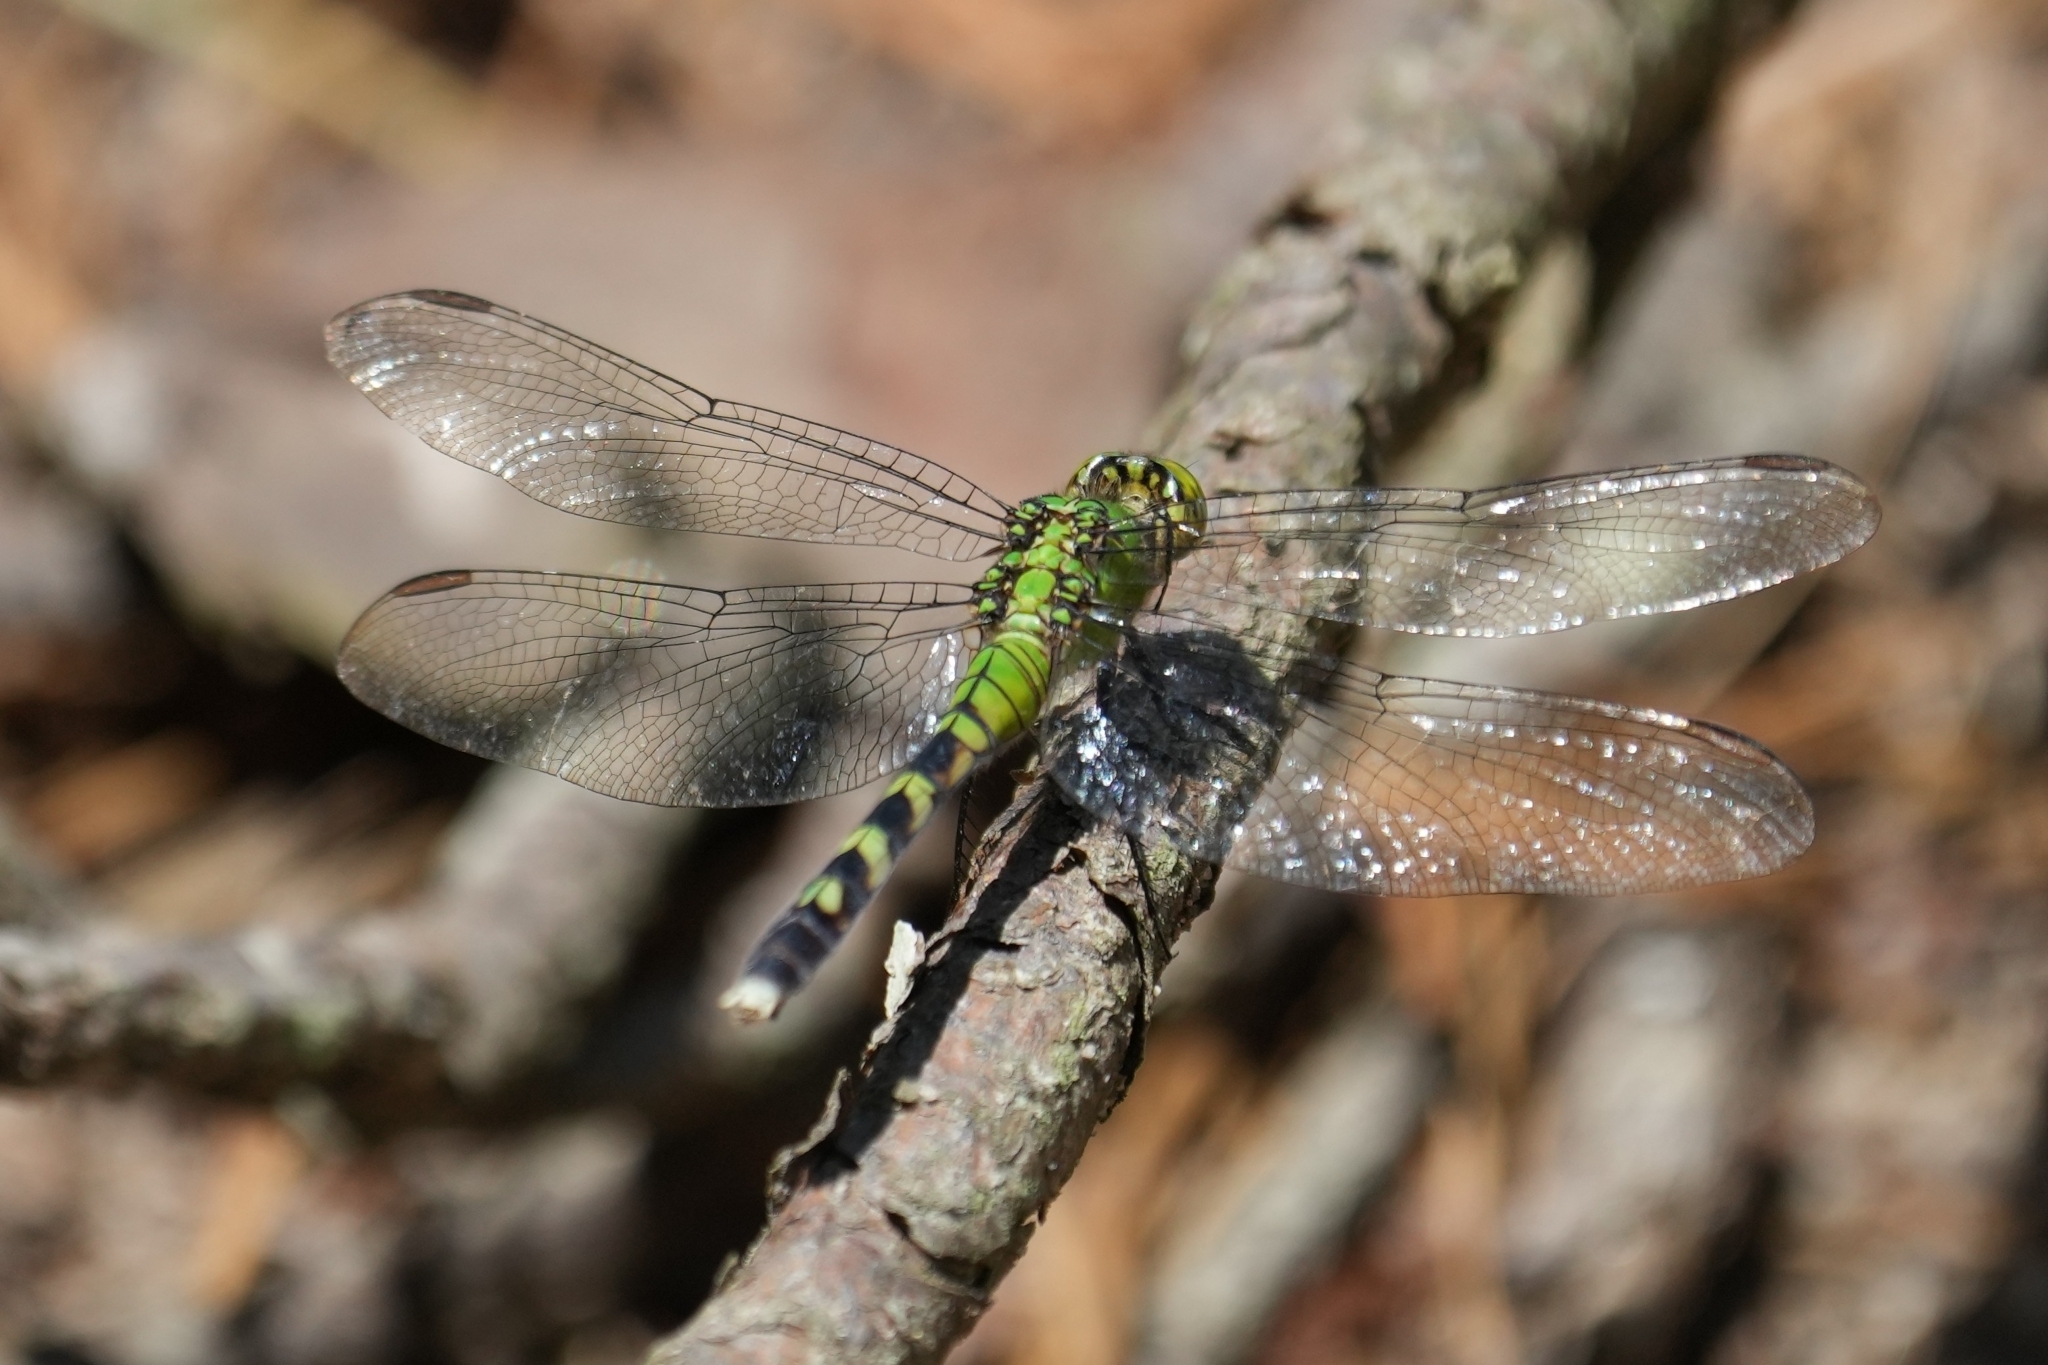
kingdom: Animalia
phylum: Arthropoda
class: Insecta
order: Odonata
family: Libellulidae
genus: Erythemis
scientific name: Erythemis simplicicollis
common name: Eastern pondhawk
